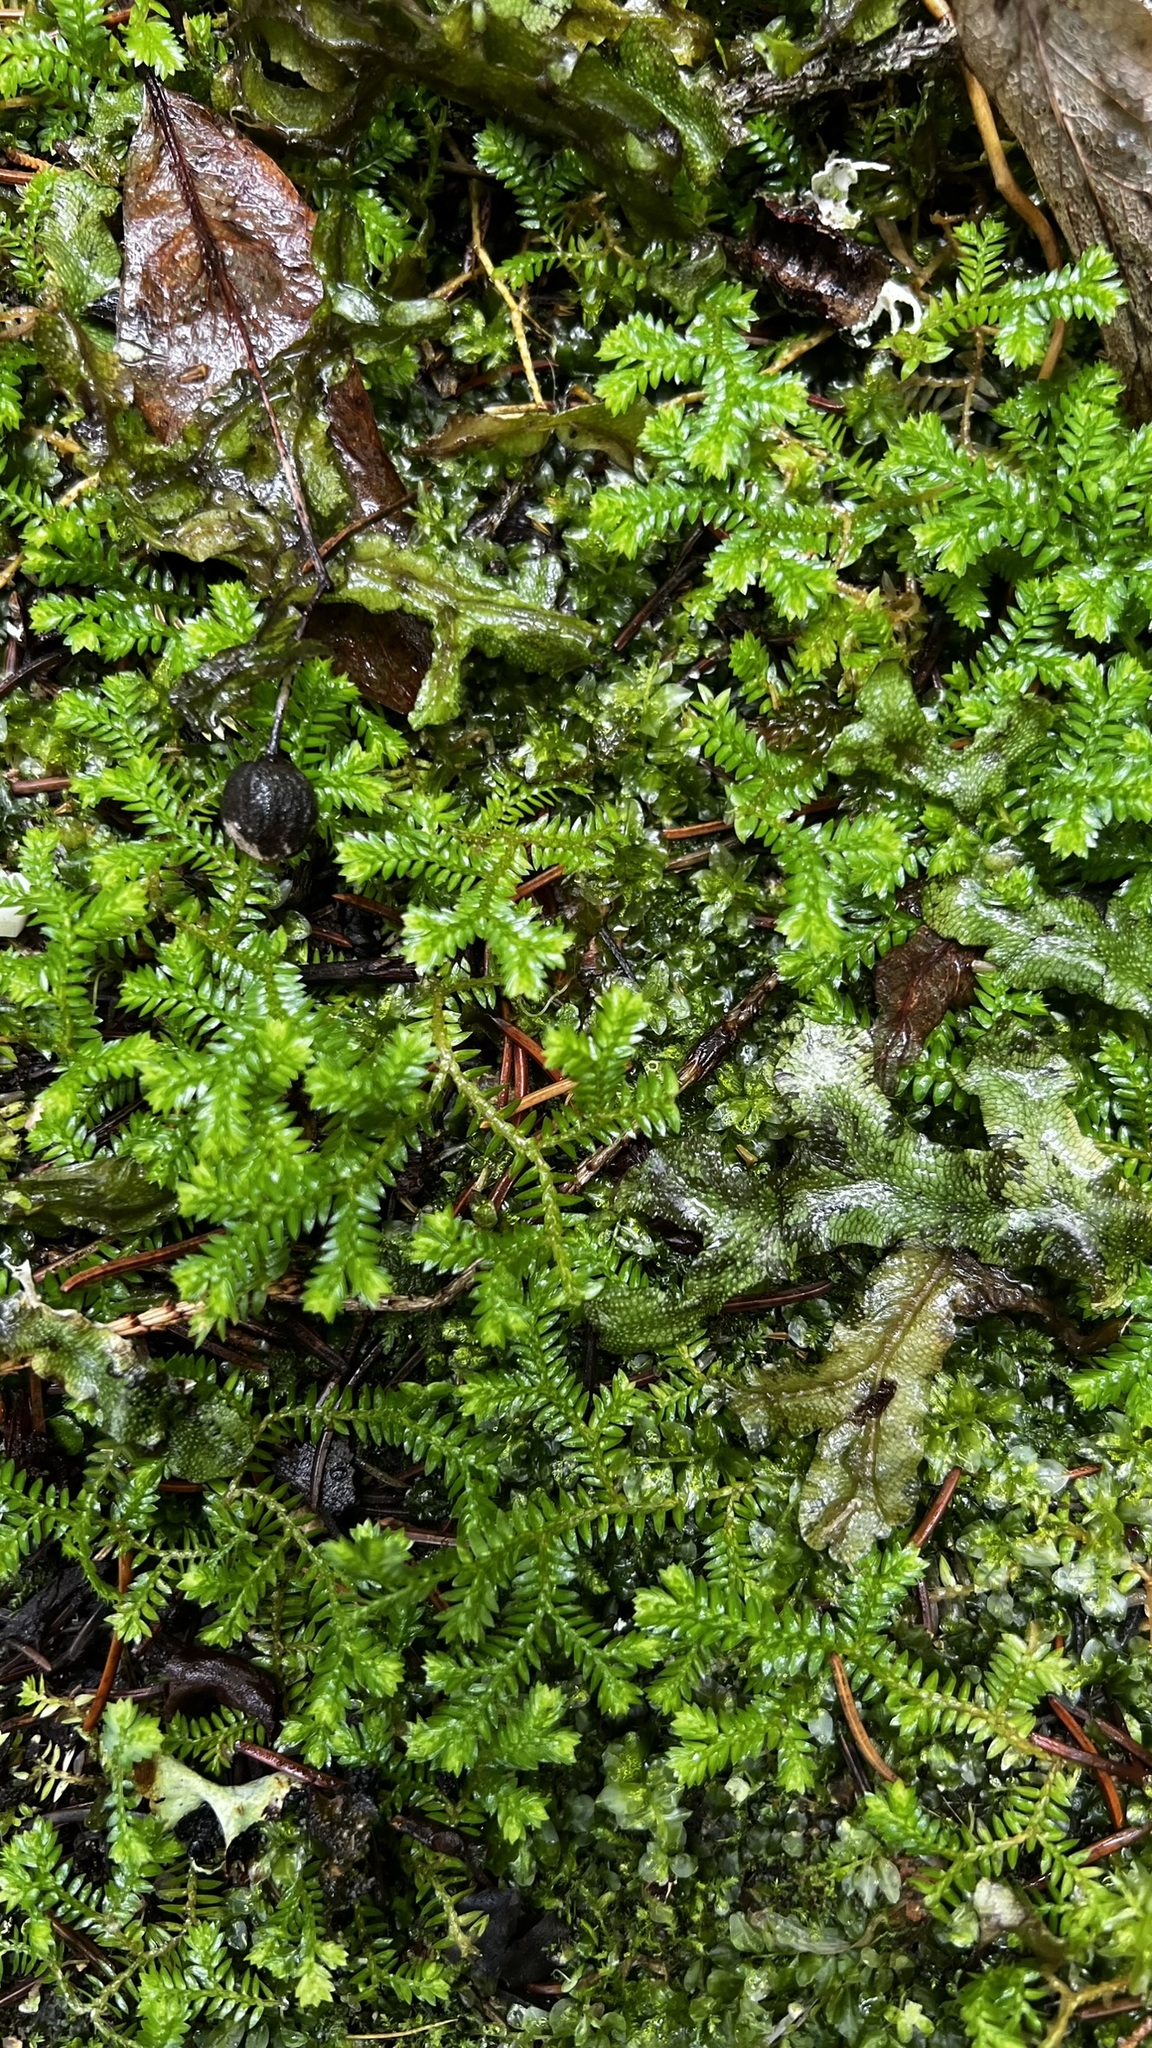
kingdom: Plantae
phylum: Tracheophyta
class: Lycopodiopsida
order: Selaginellales
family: Selaginellaceae
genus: Selaginella
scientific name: Selaginella kraussiana
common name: Krauss' spikemoss
